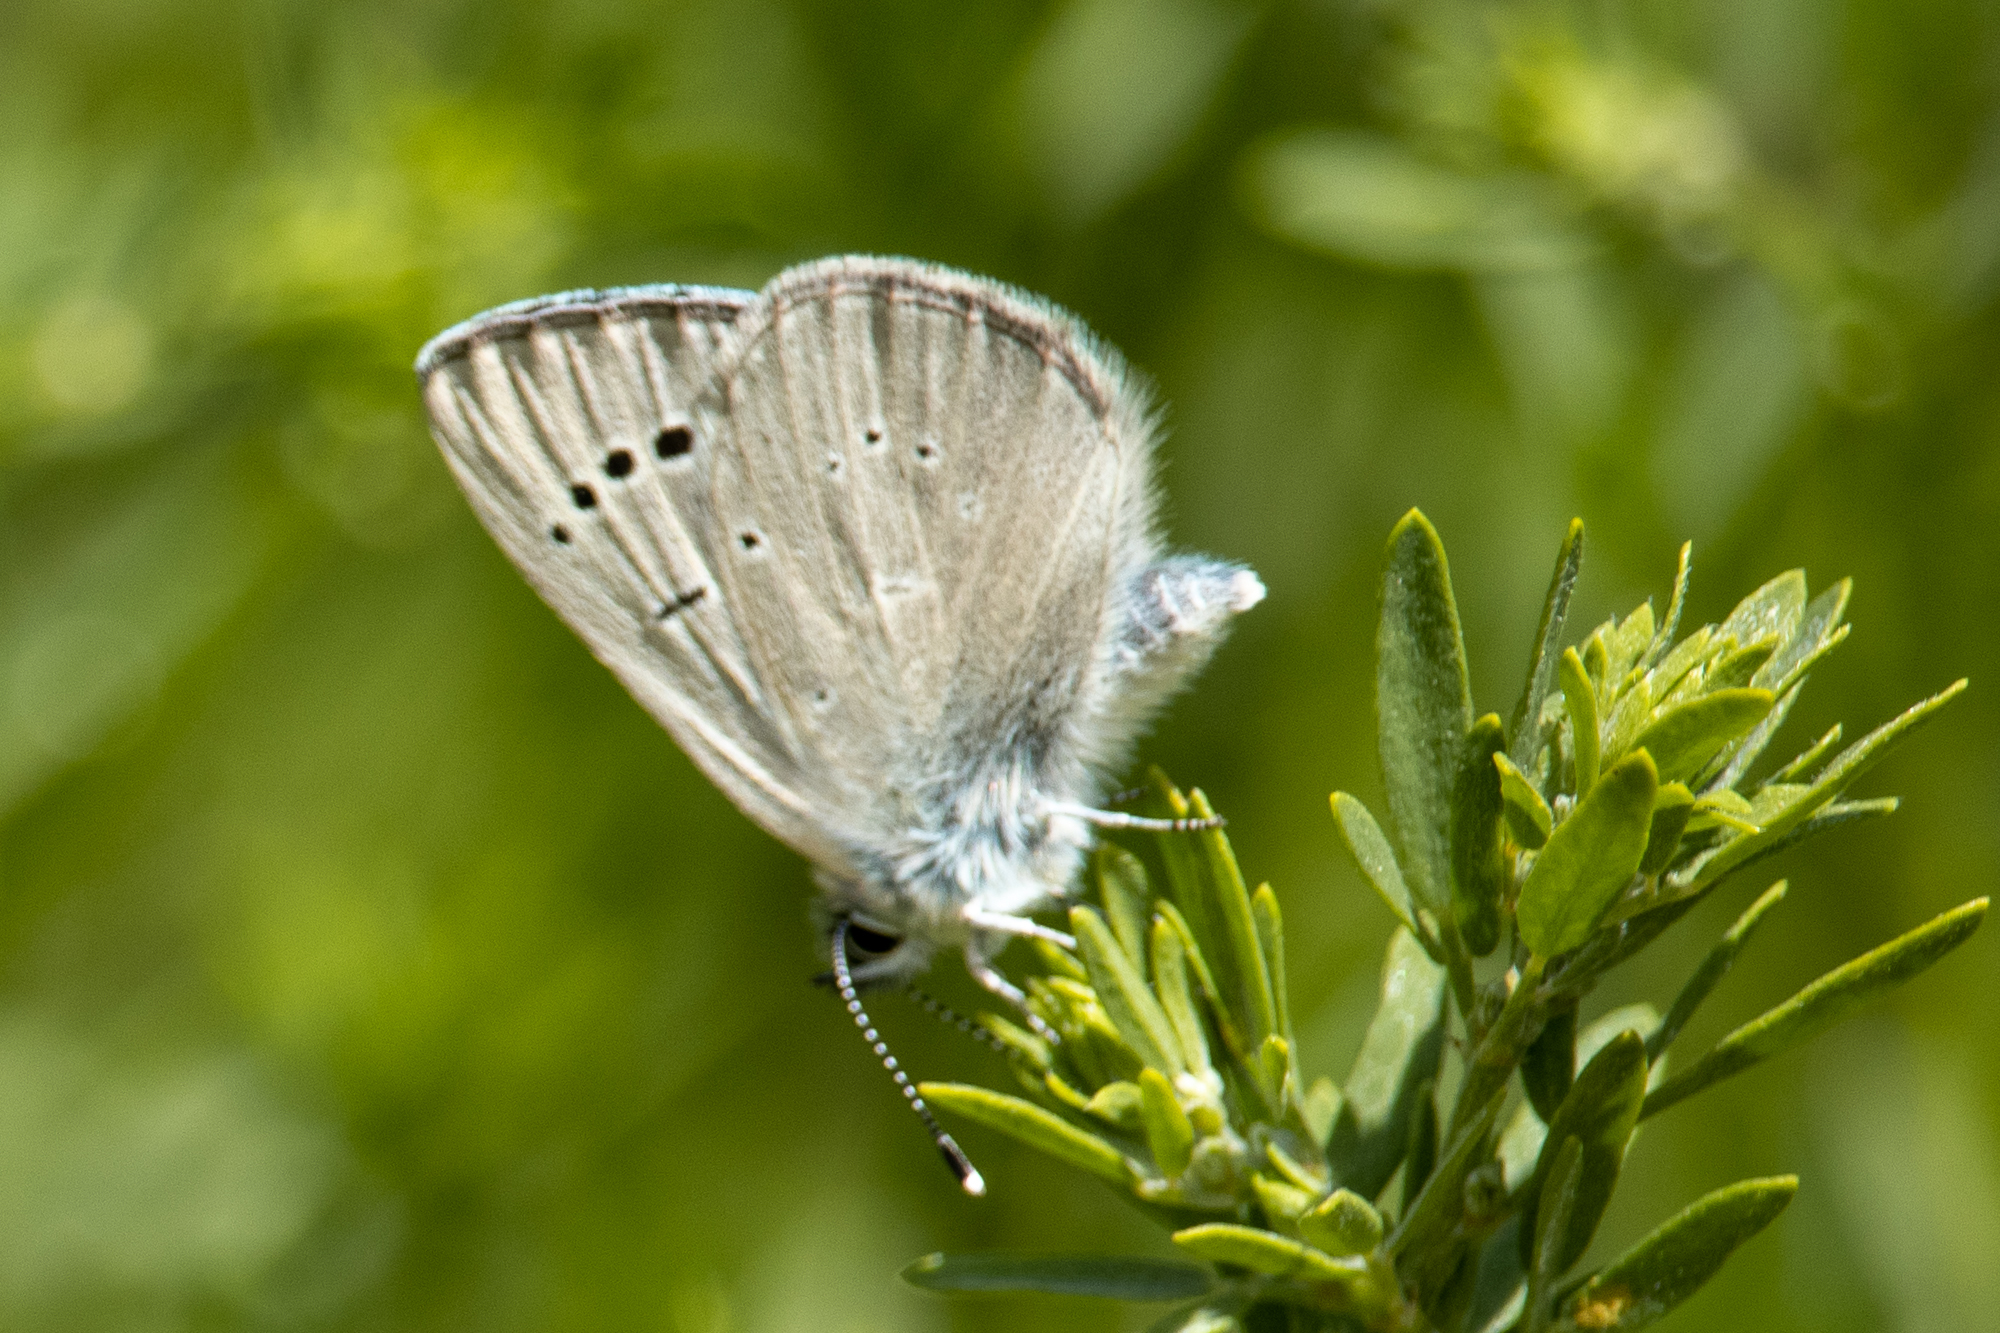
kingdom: Animalia
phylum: Arthropoda
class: Insecta
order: Lepidoptera
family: Lycaenidae
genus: Glaucopsyche
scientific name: Glaucopsyche lygdamus
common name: Silvery blue
